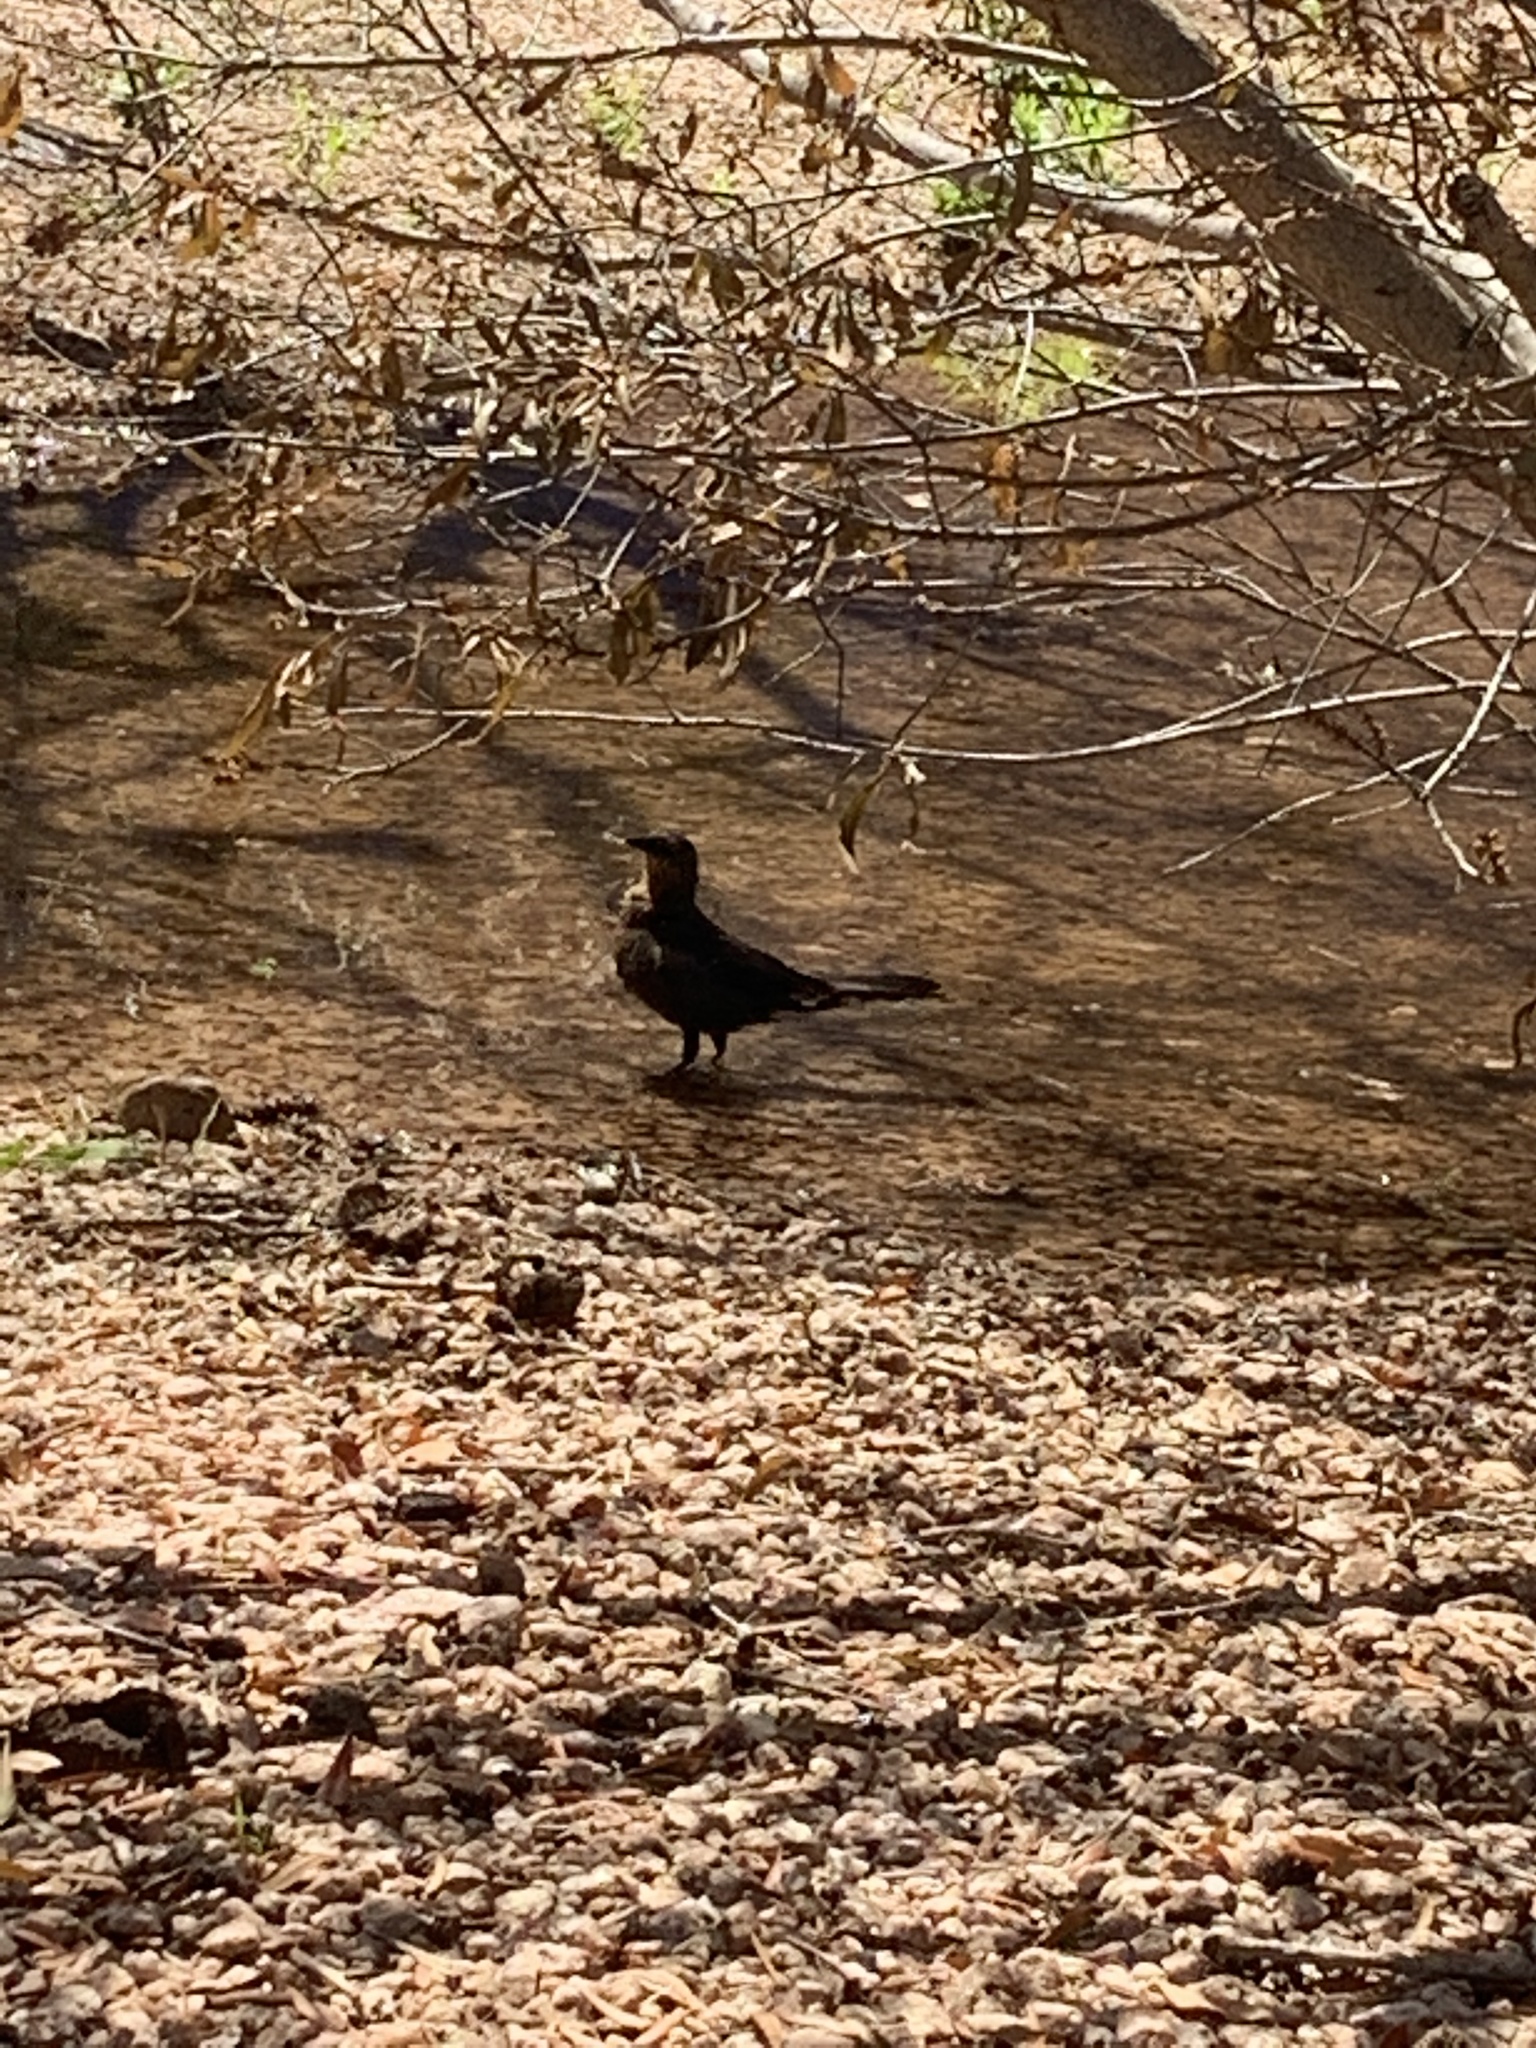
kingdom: Animalia
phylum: Chordata
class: Aves
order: Passeriformes
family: Icteridae
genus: Quiscalus
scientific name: Quiscalus mexicanus
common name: Great-tailed grackle
